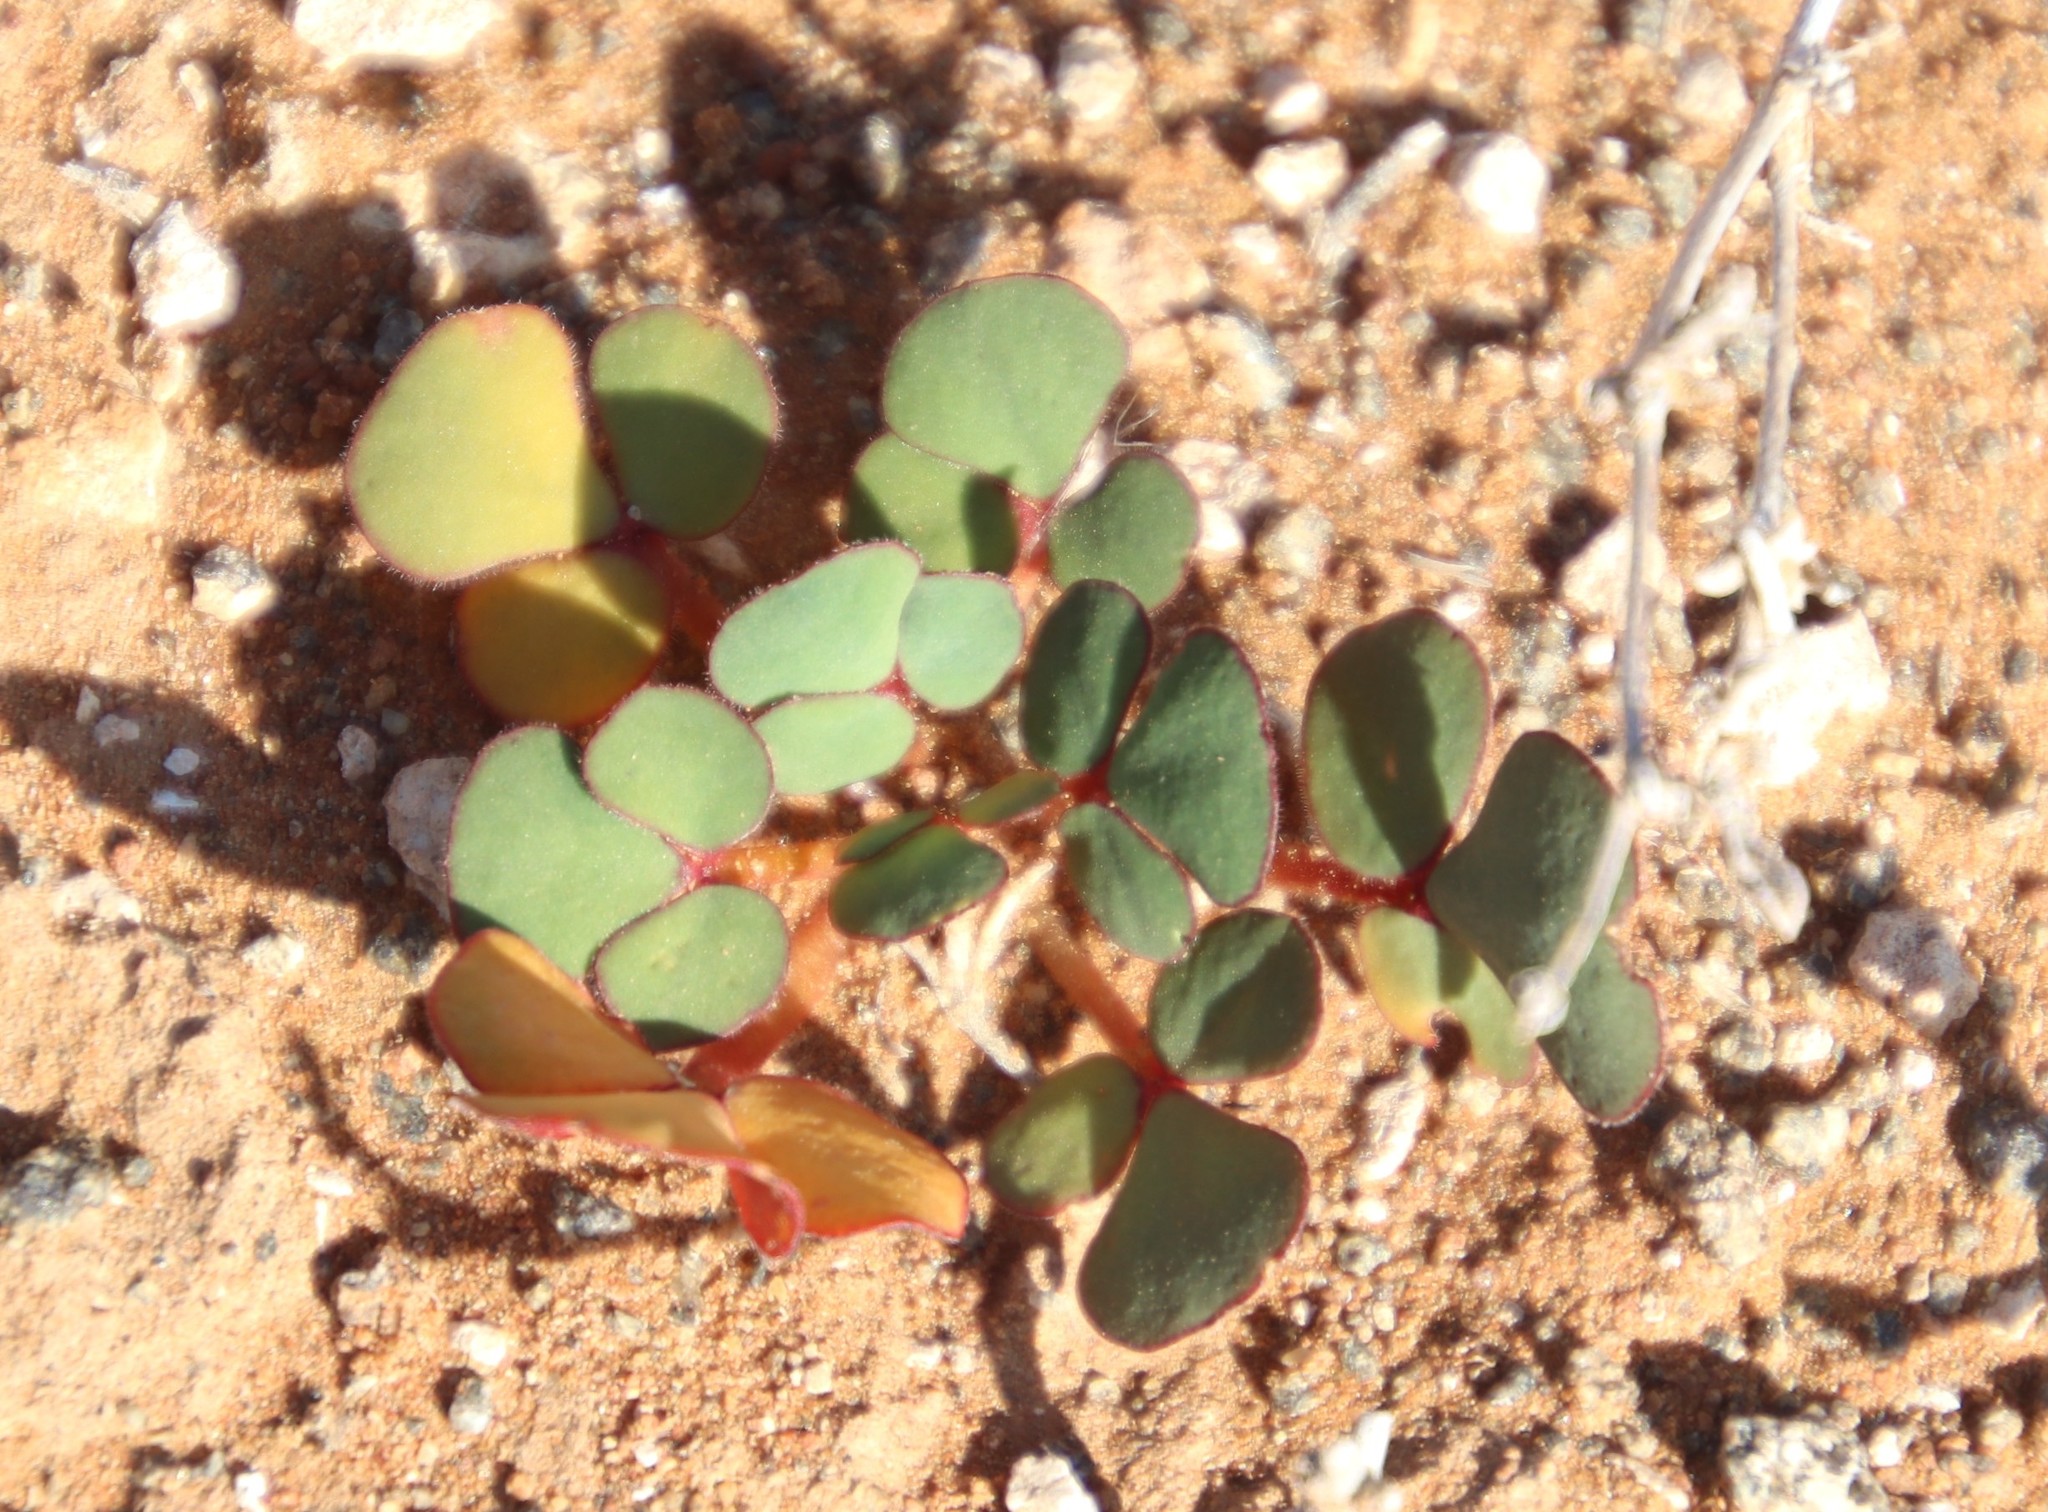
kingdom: Plantae
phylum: Tracheophyta
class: Magnoliopsida
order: Oxalidales
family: Oxalidaceae
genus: Oxalis
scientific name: Oxalis purpurea
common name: Purple woodsorrel
